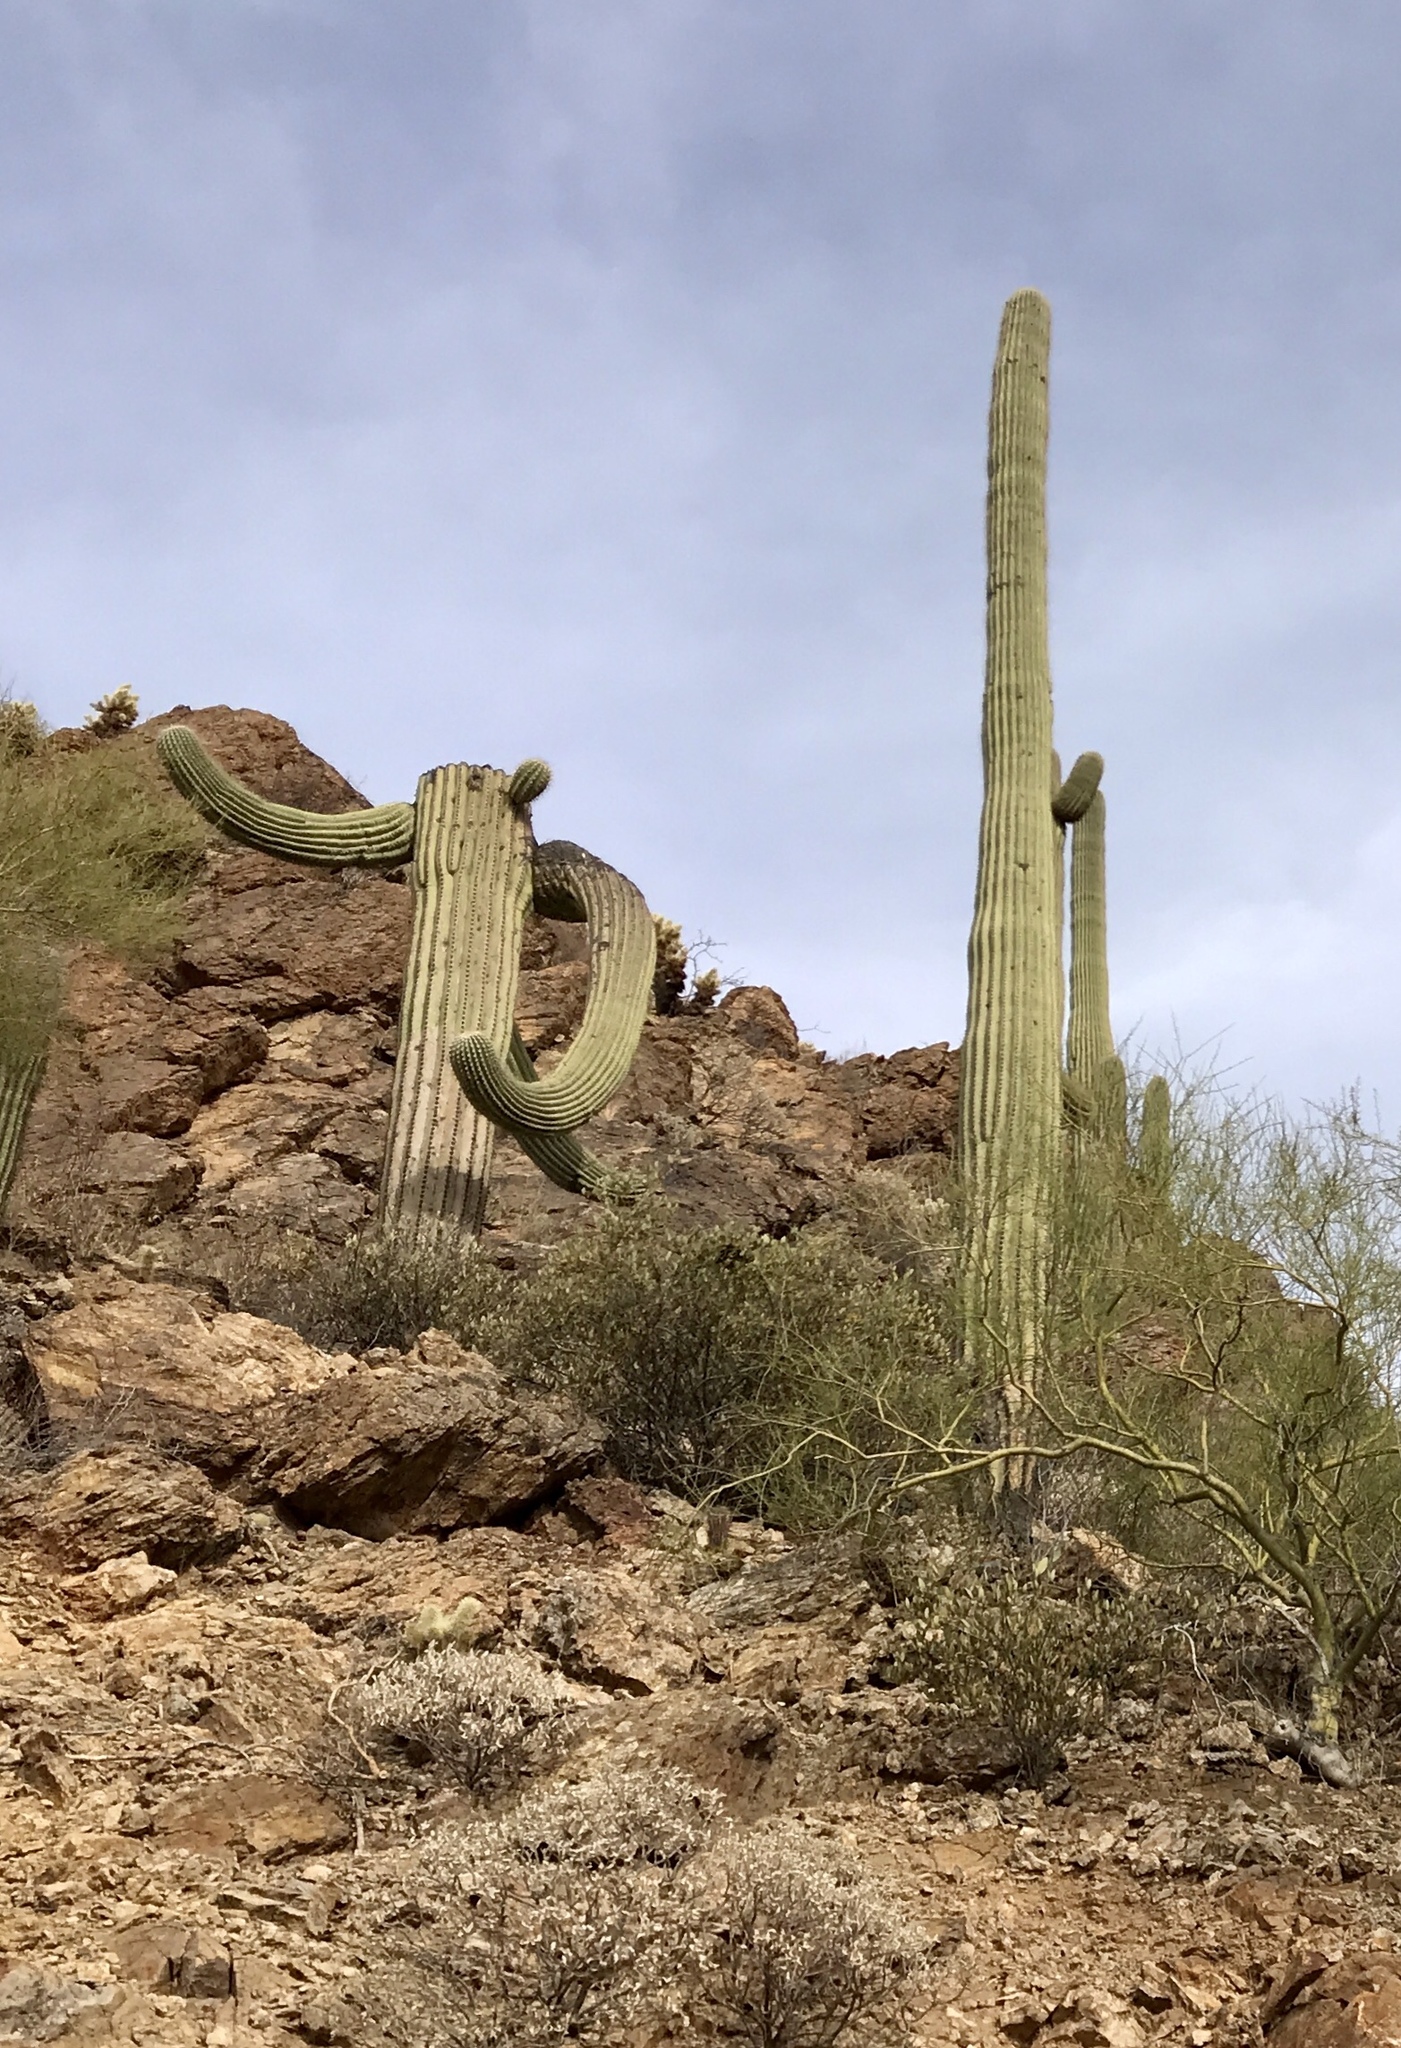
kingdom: Plantae
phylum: Tracheophyta
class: Magnoliopsida
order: Caryophyllales
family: Cactaceae
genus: Carnegiea
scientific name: Carnegiea gigantea
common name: Saguaro
